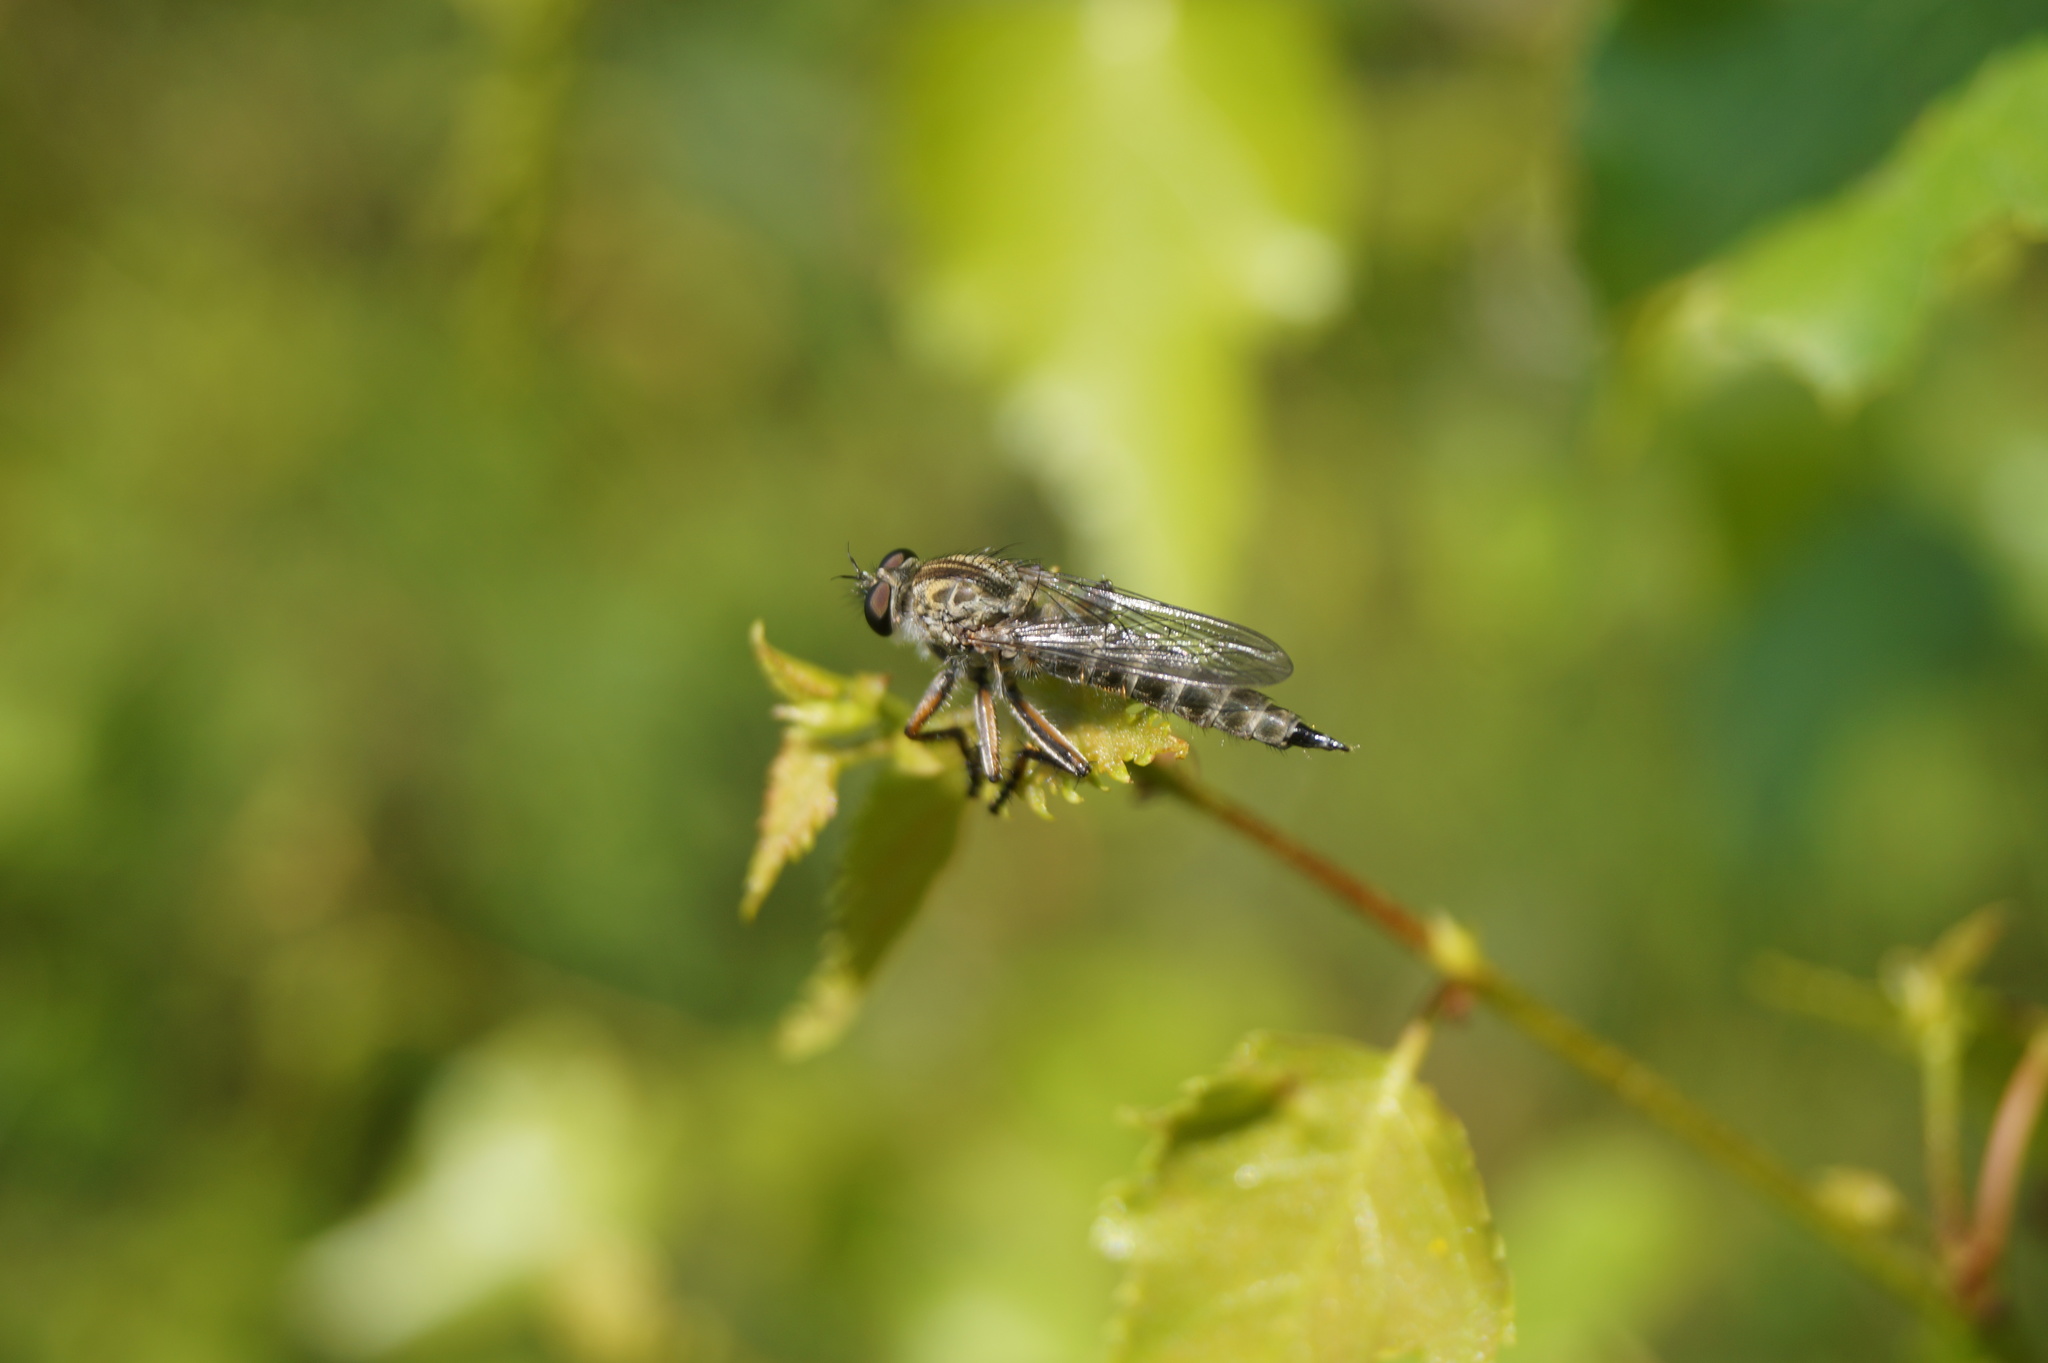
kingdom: Animalia
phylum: Arthropoda
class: Insecta
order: Diptera
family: Asilidae
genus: Machimus
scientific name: Machimus atricapillus
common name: Kite-tailed robberfly
